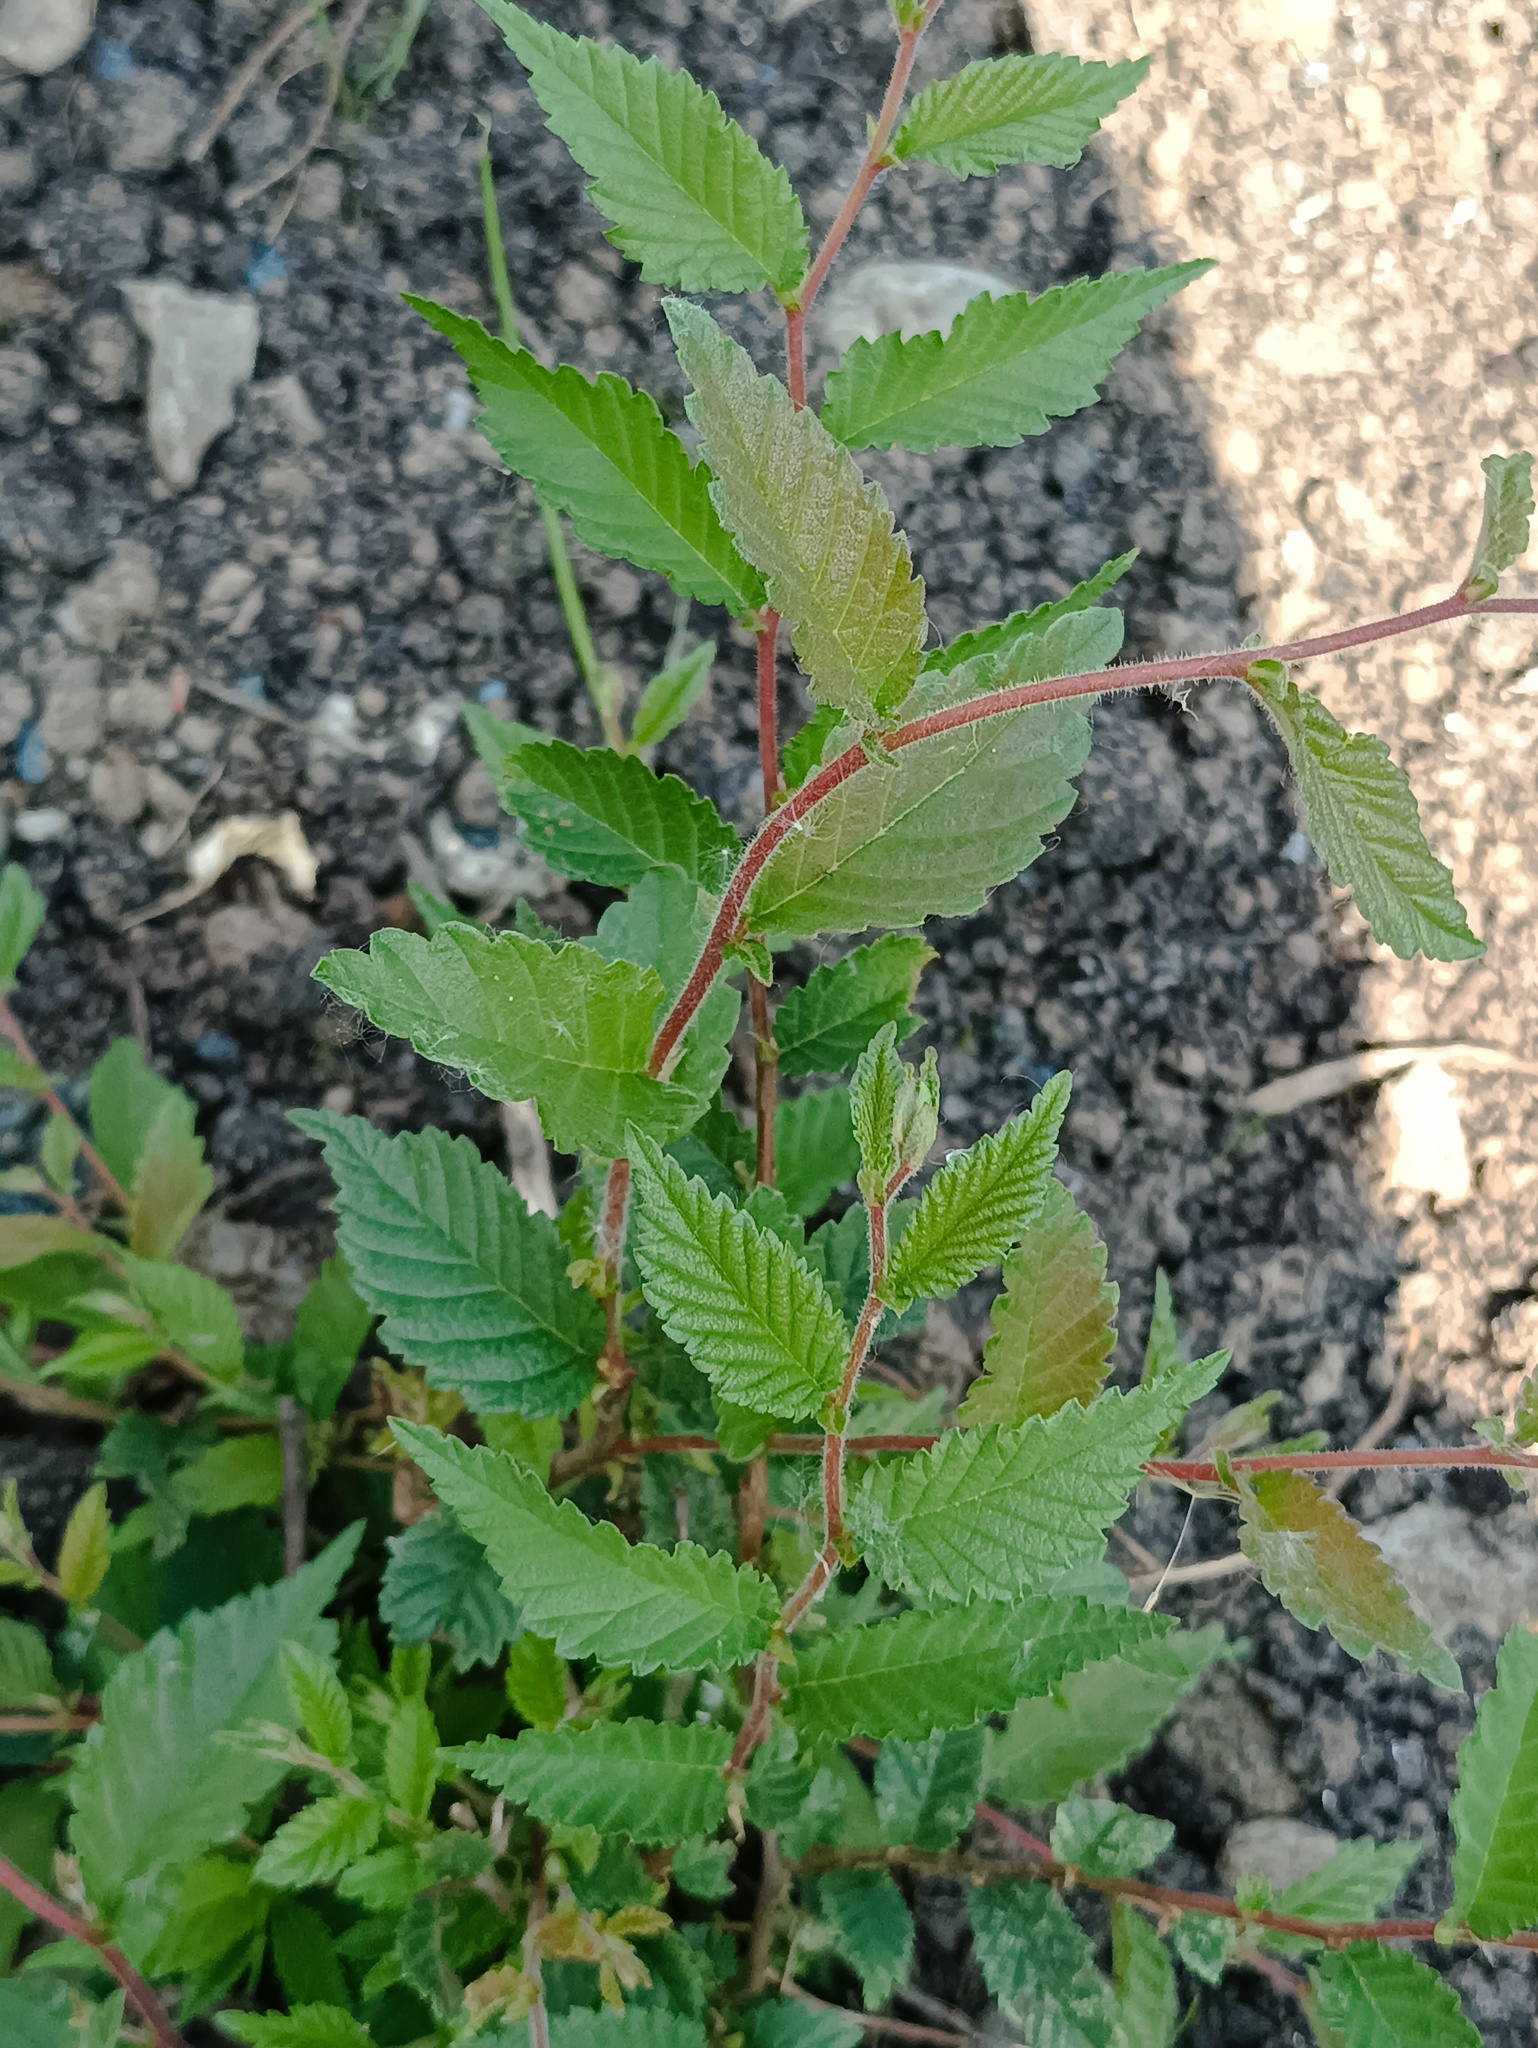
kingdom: Plantae
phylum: Tracheophyta
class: Magnoliopsida
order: Rosales
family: Ulmaceae
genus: Ulmus
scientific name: Ulmus pumila
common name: Siberian elm
